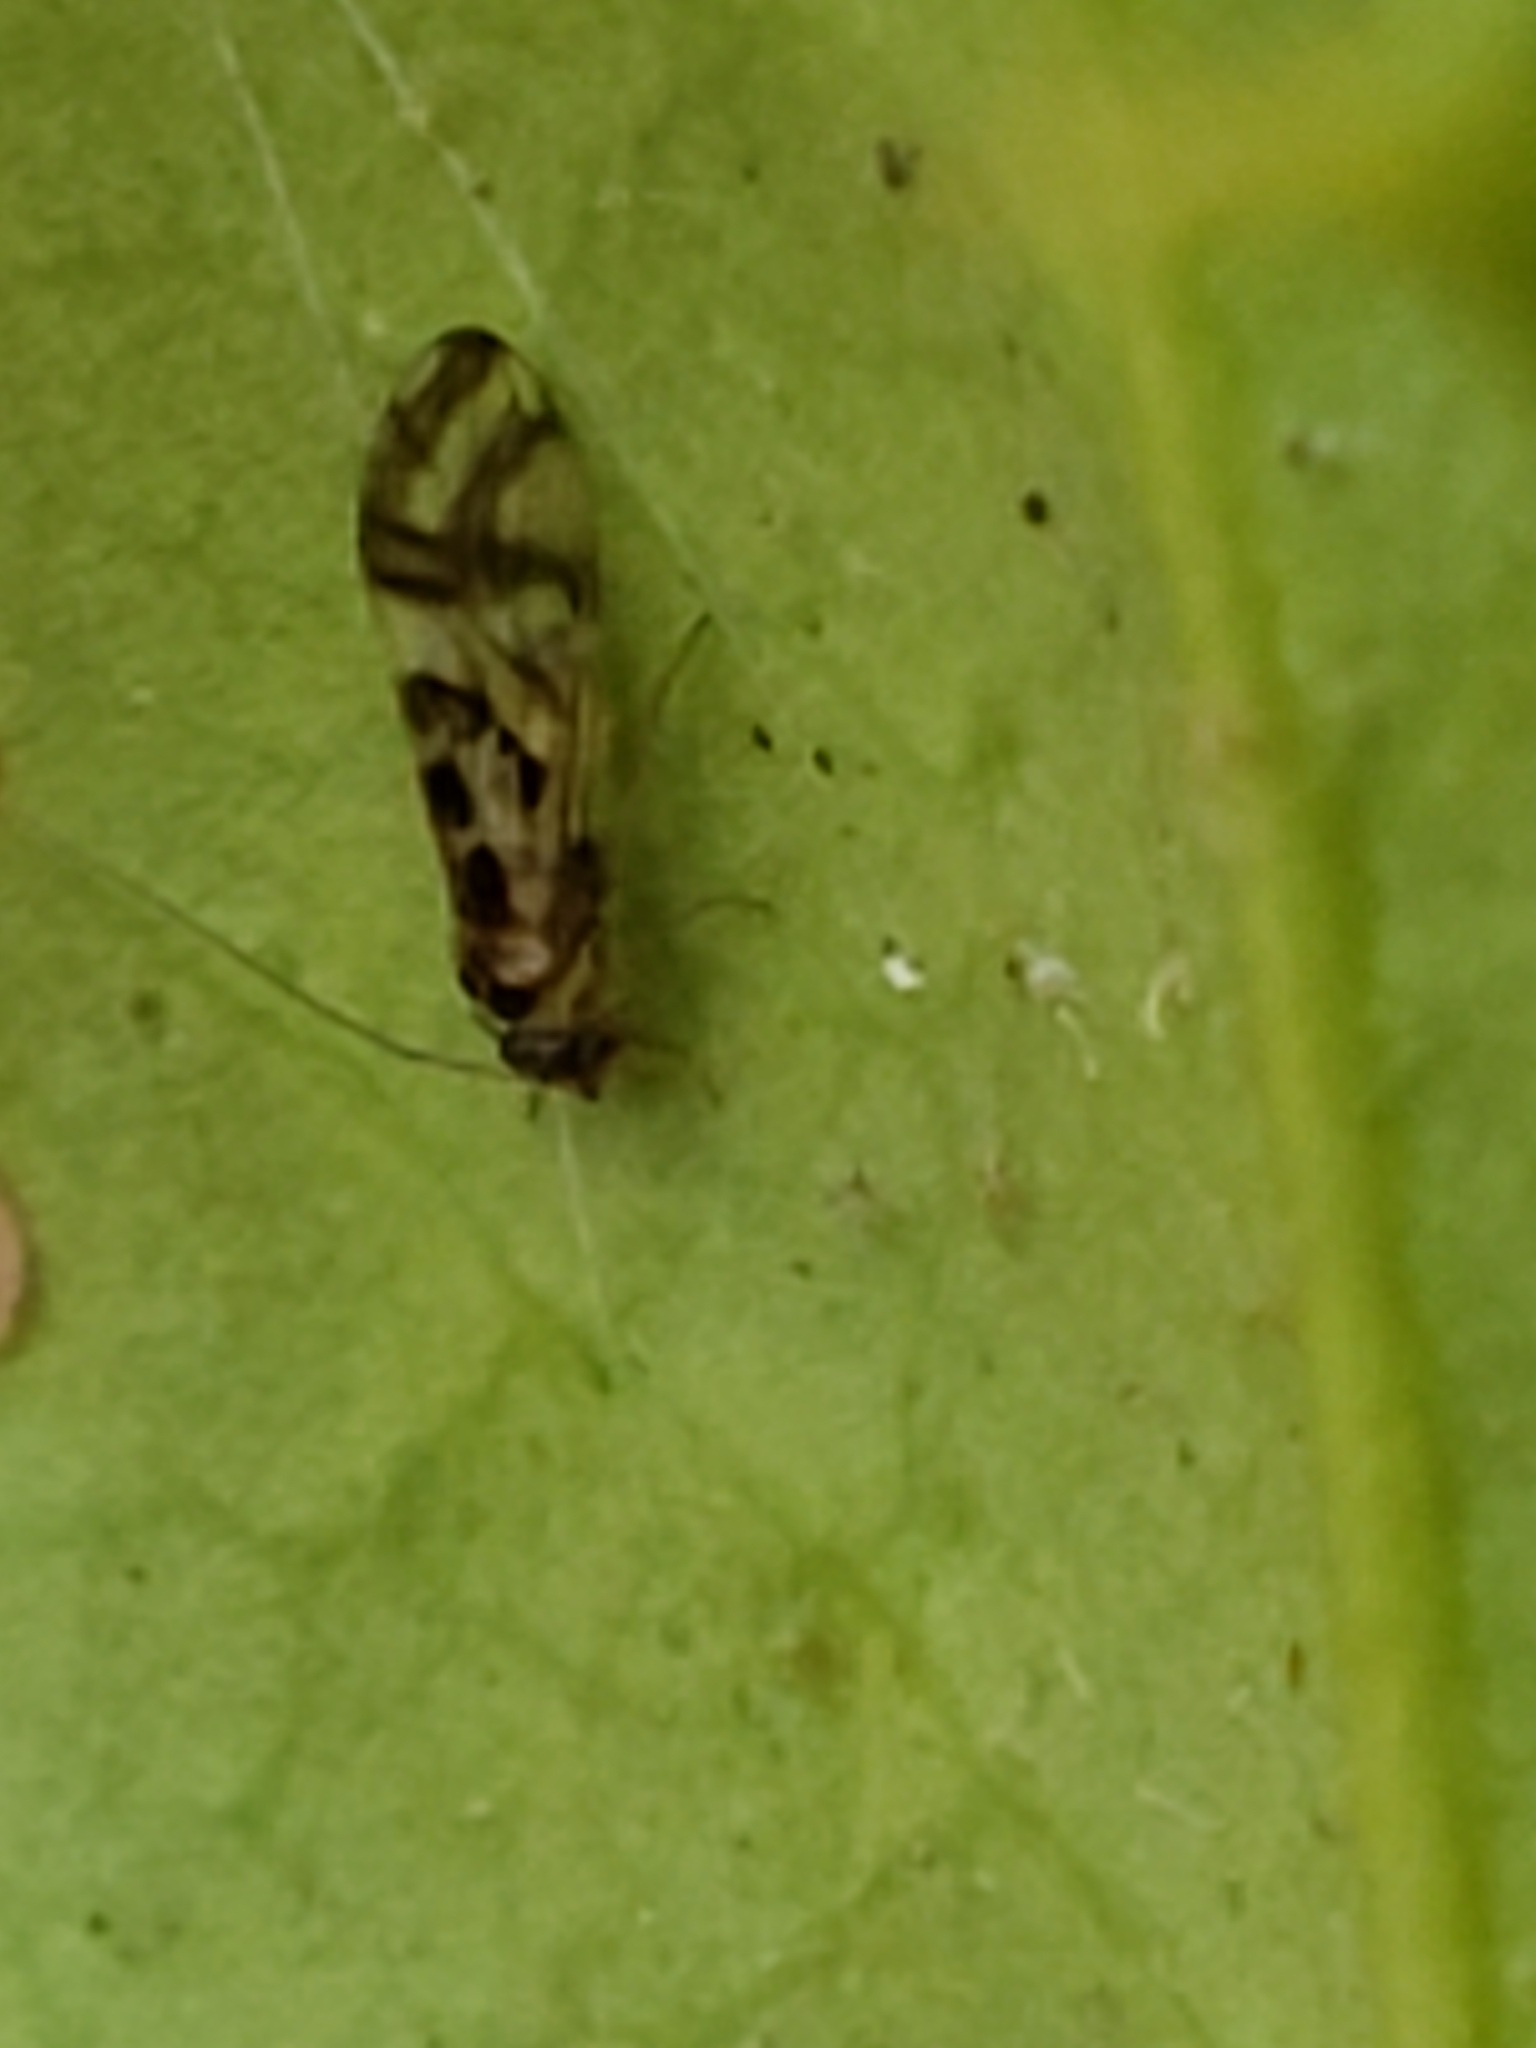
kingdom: Animalia
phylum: Arthropoda
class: Insecta
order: Psocodea
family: Stenopsocidae
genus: Graphopsocus
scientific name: Graphopsocus cruciatus
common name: Lizard bark louse
